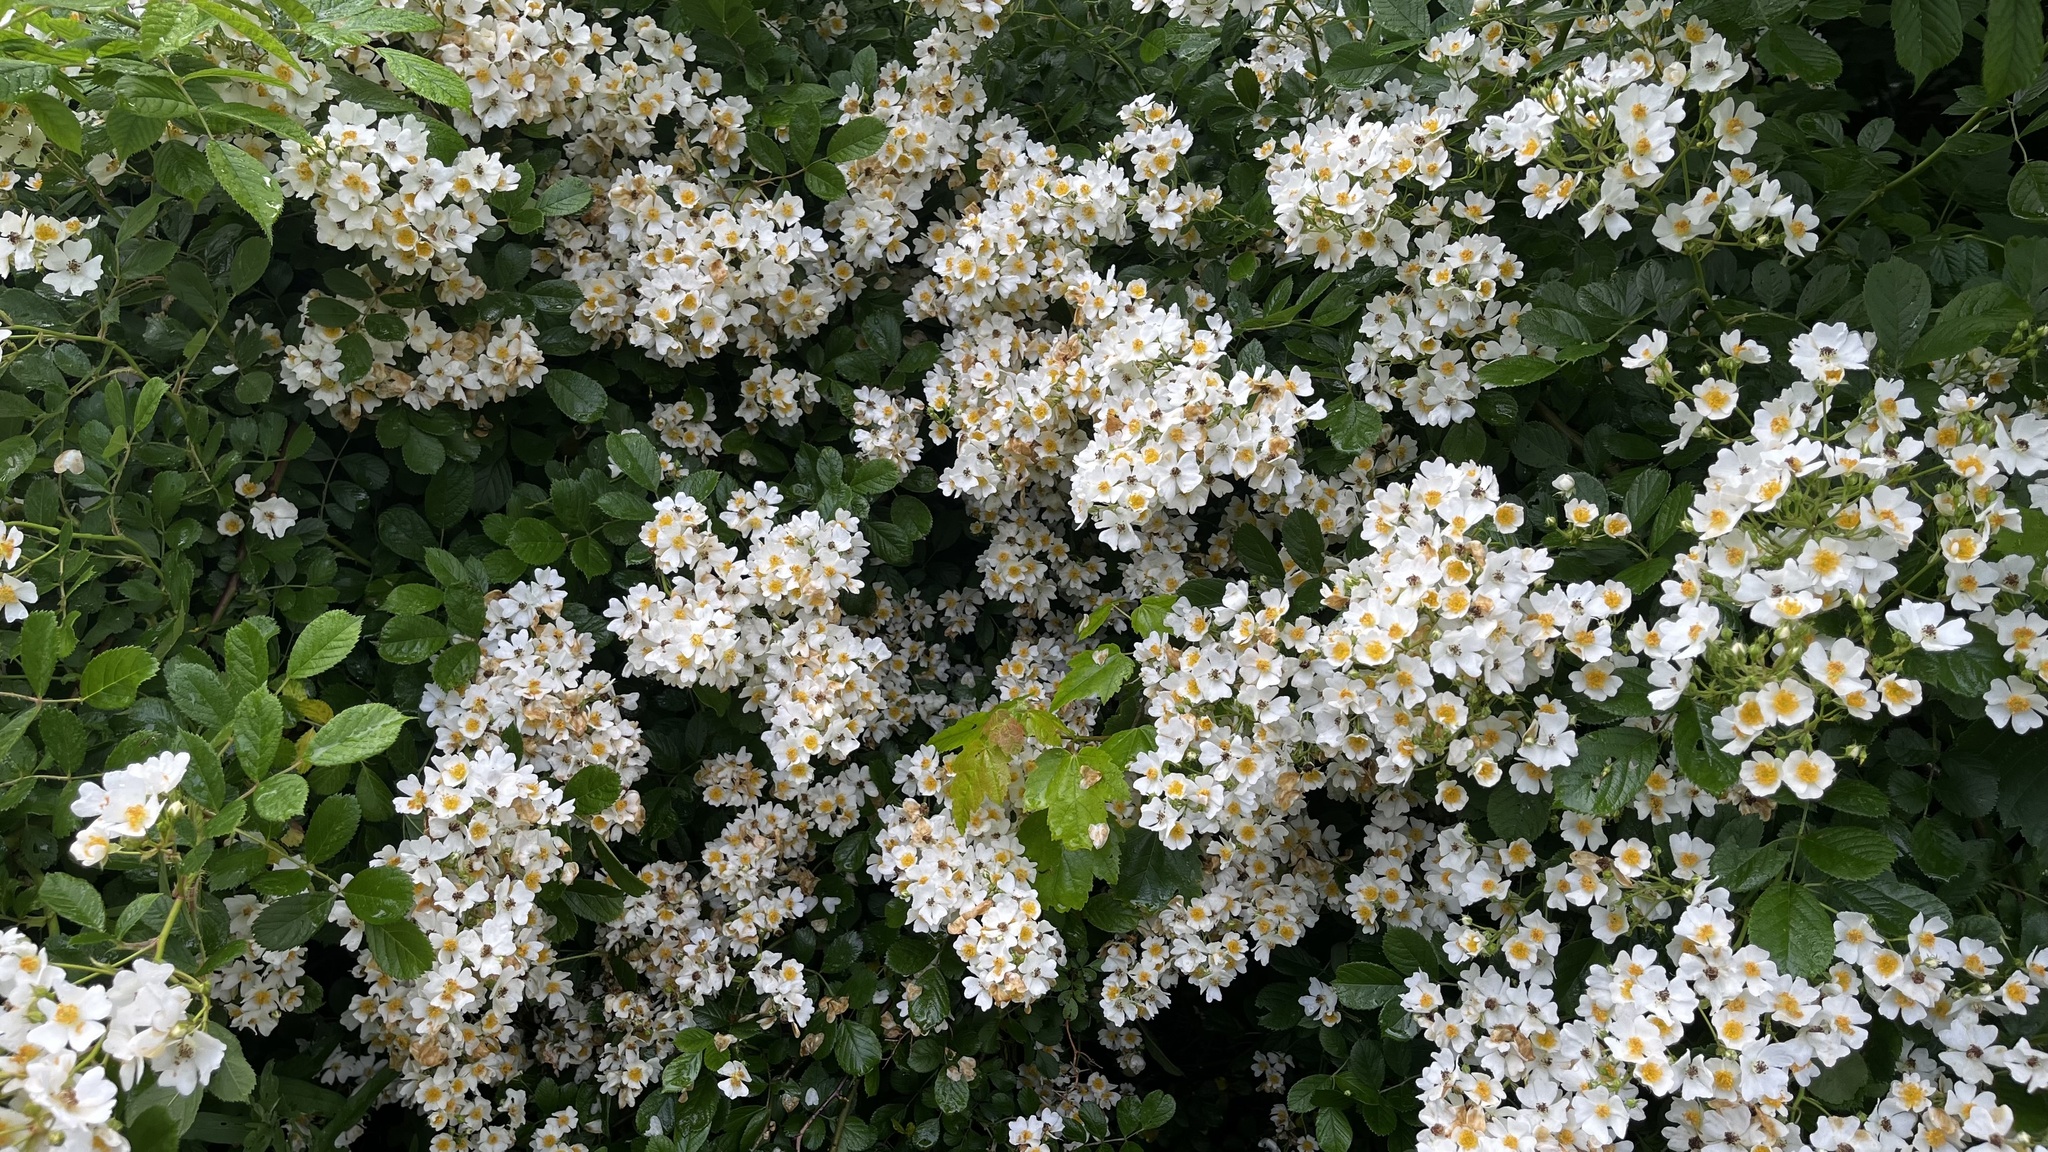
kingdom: Plantae
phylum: Tracheophyta
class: Magnoliopsida
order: Rosales
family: Rosaceae
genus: Rosa
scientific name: Rosa multiflora
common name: Multiflora rose
